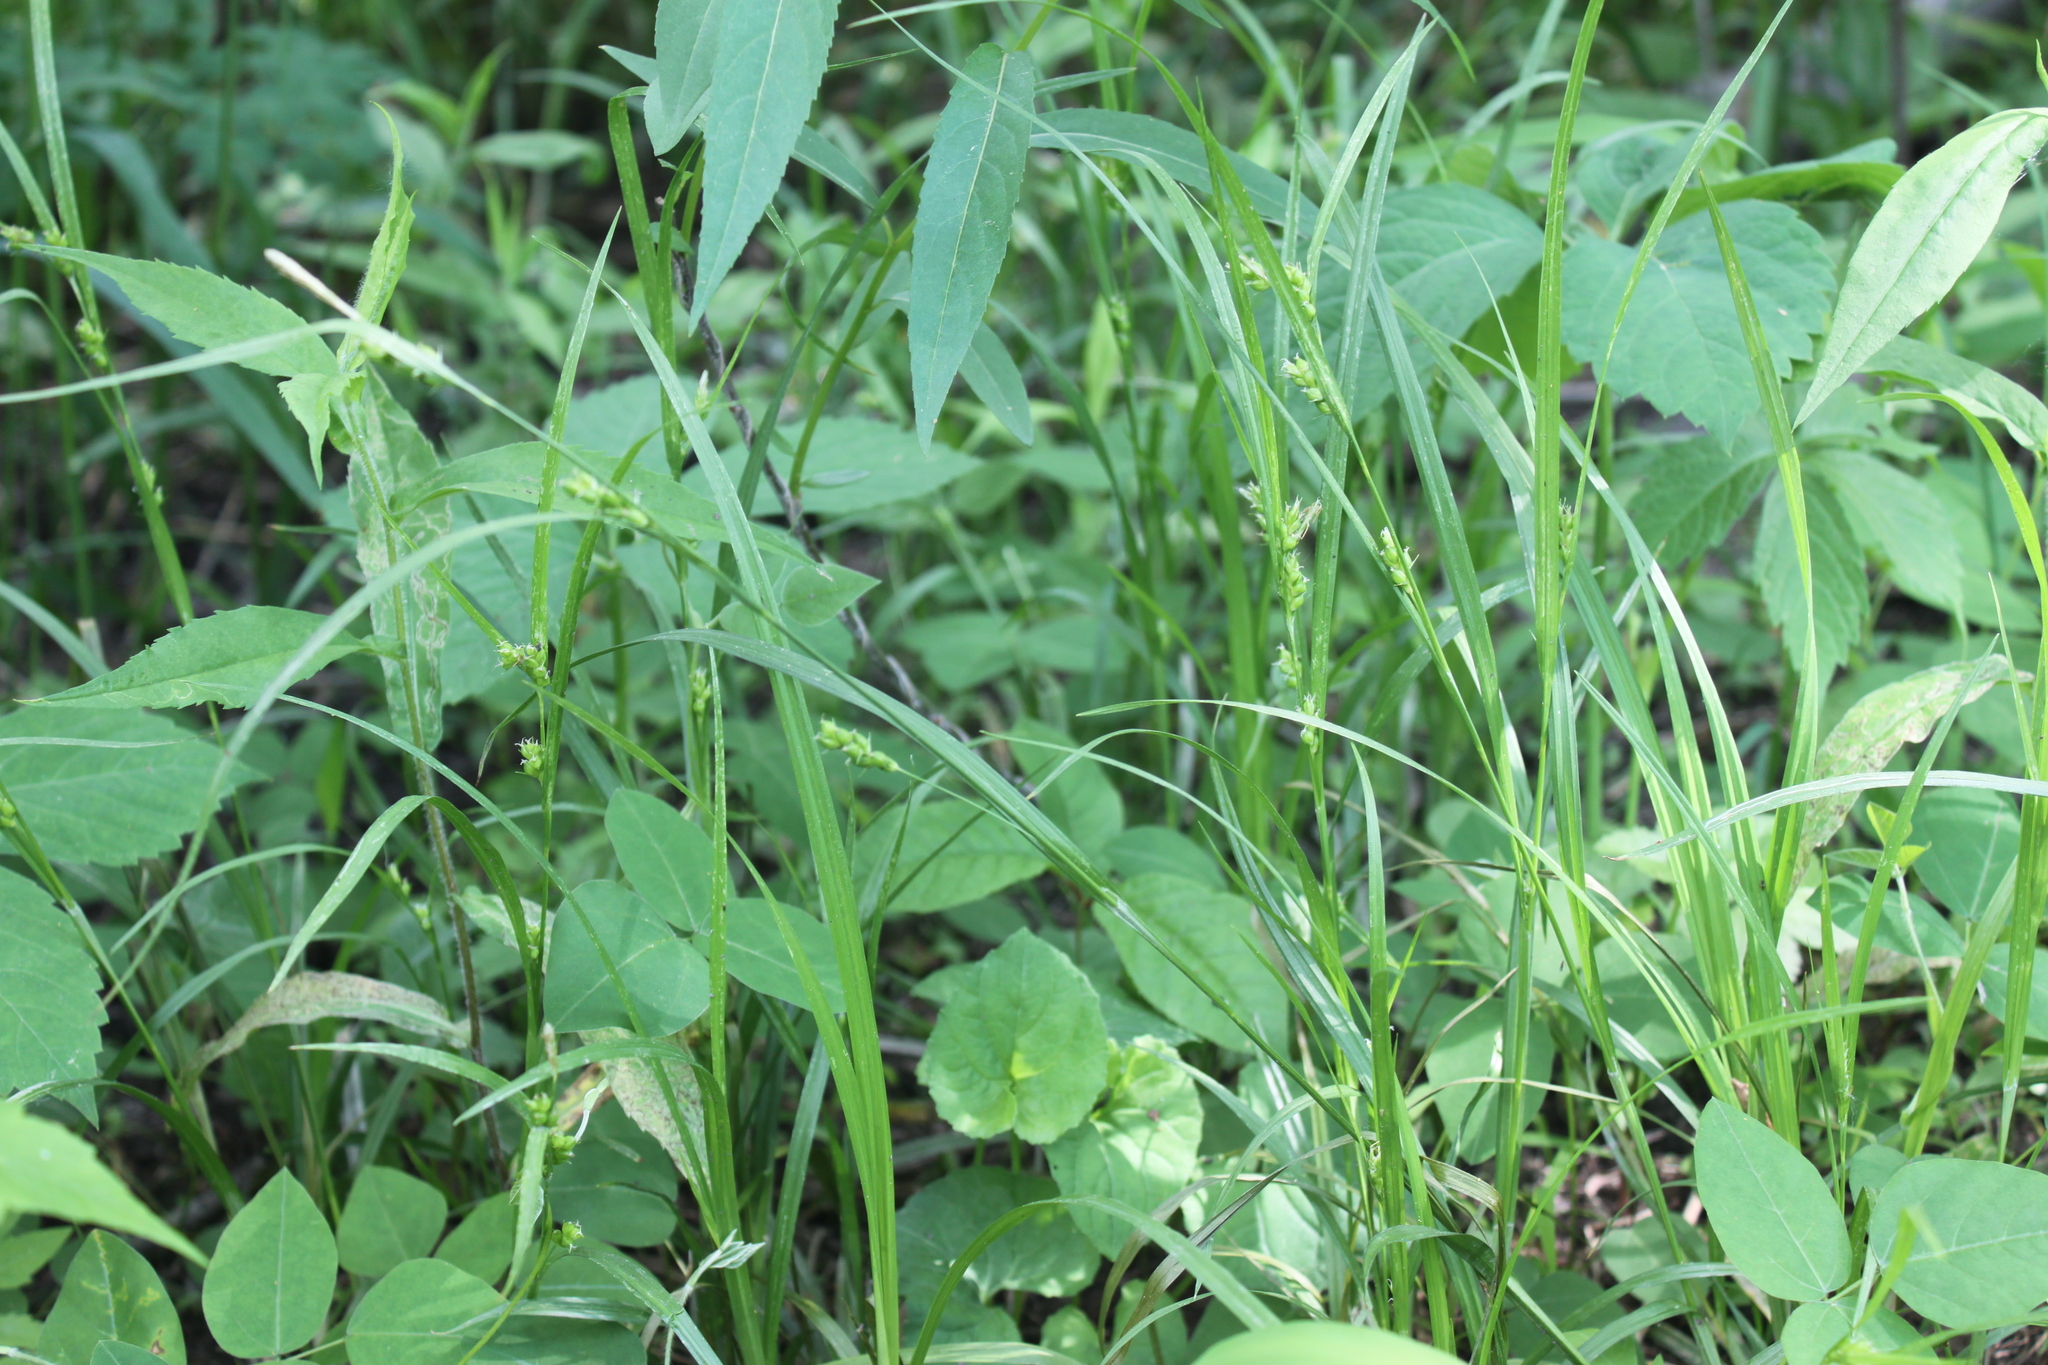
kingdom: Plantae
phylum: Tracheophyta
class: Liliopsida
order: Poales
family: Cyperaceae
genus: Carex
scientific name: Carex grisea
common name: Eastern narrow-leaved sedge
